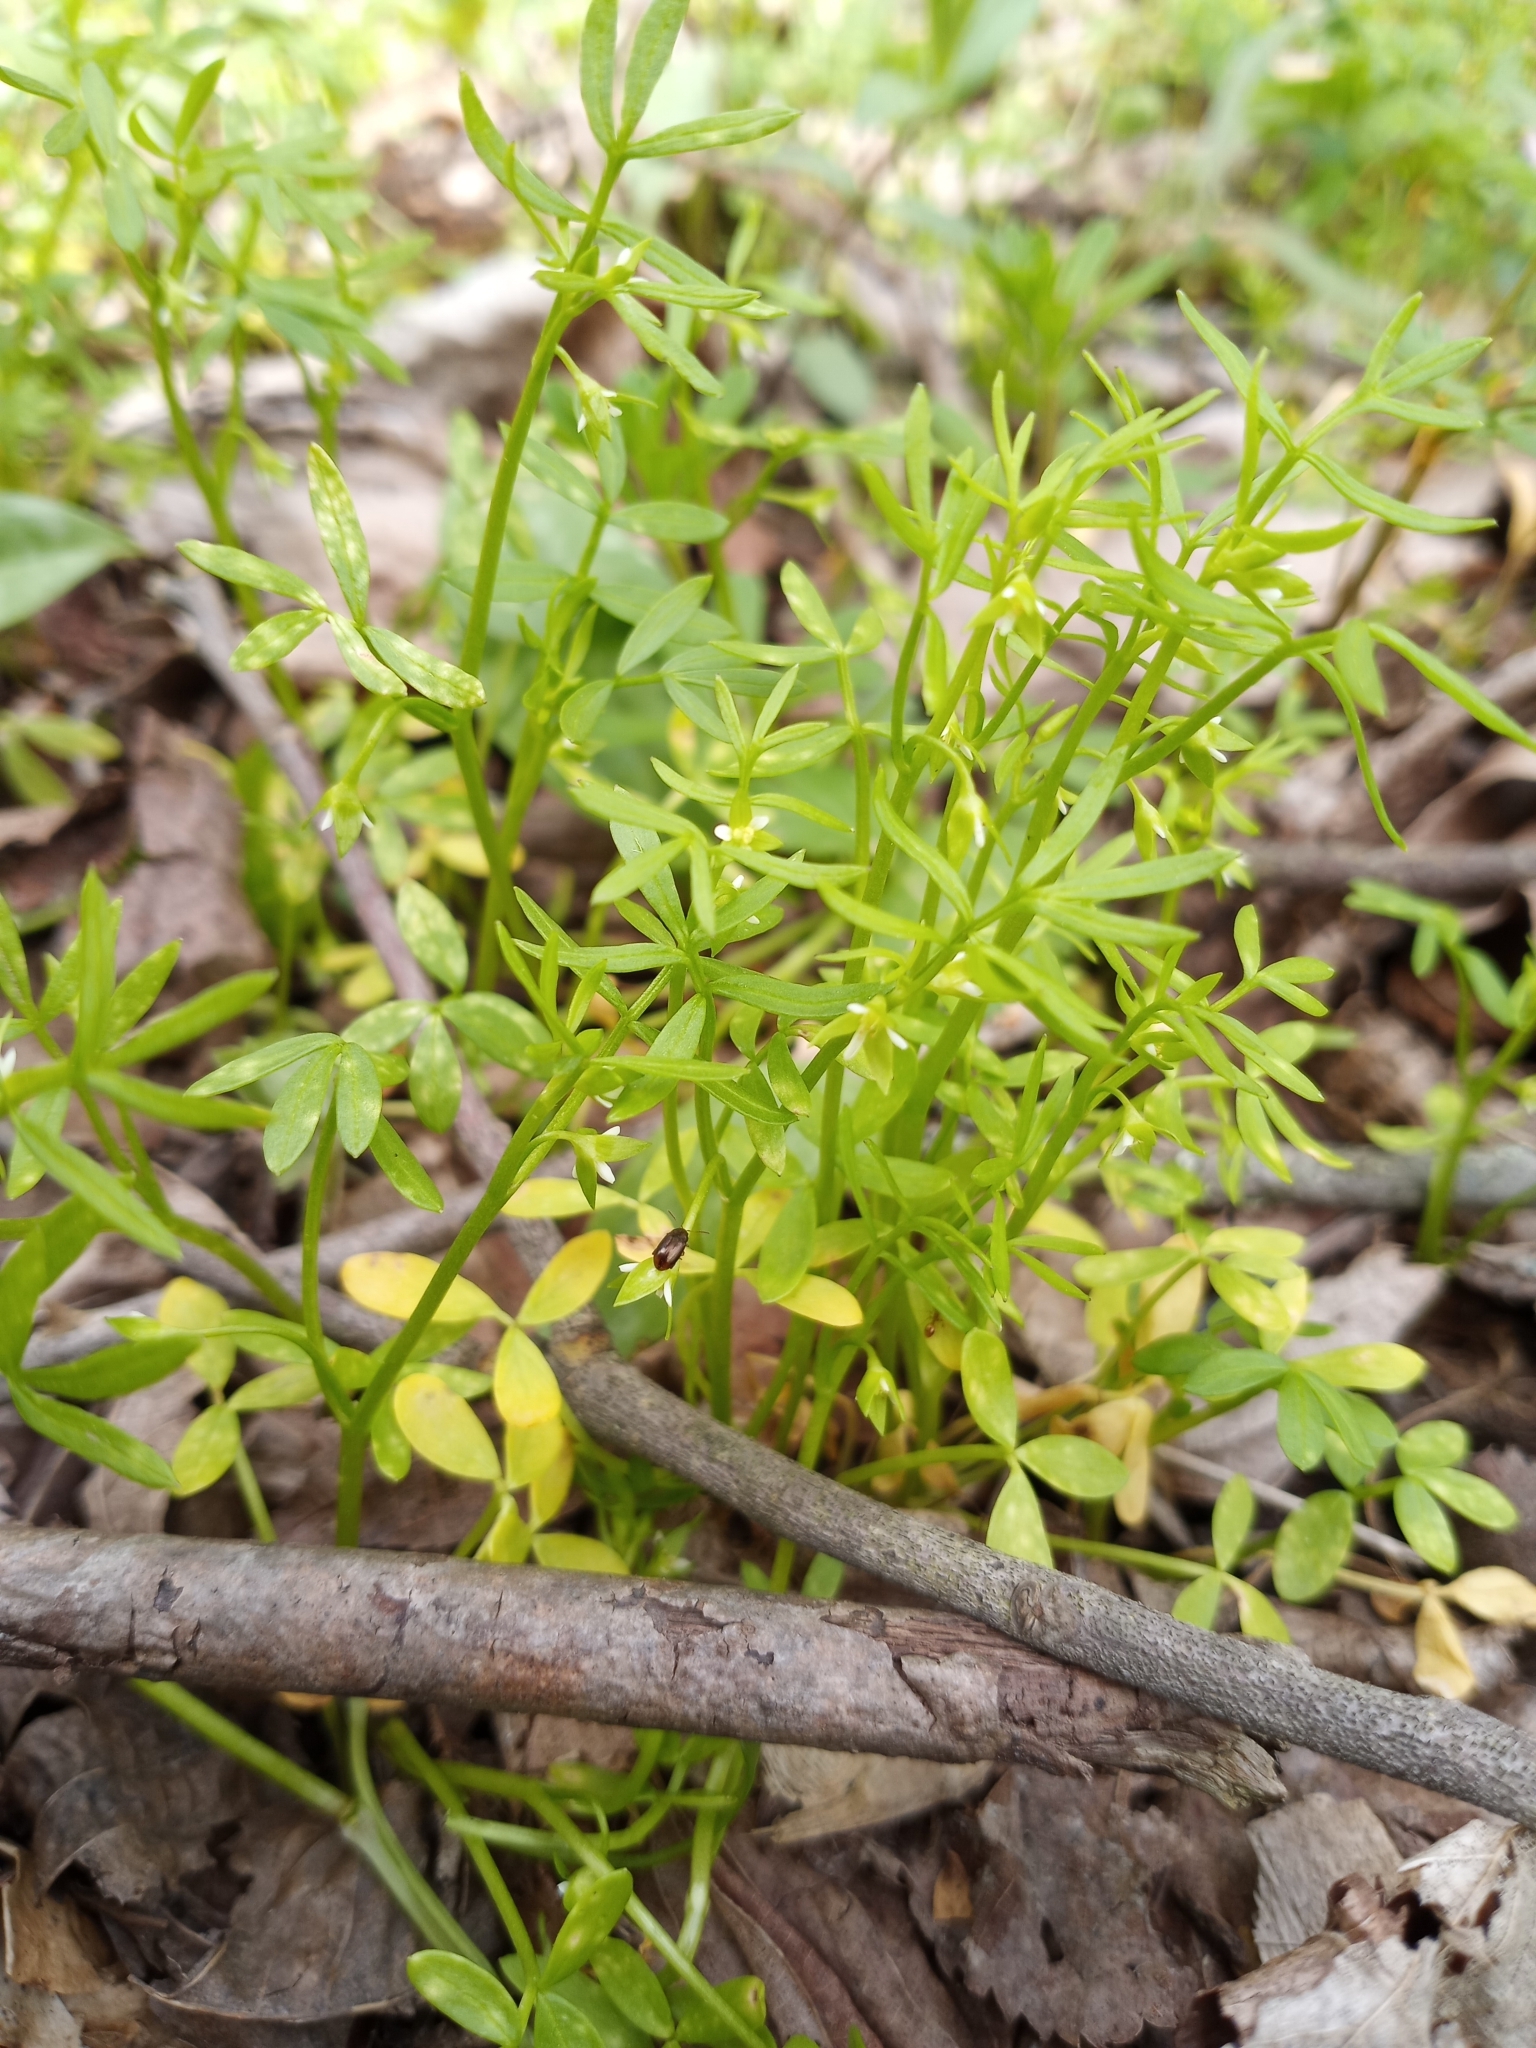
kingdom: Plantae
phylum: Tracheophyta
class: Magnoliopsida
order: Brassicales
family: Limnanthaceae
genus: Floerkea
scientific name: Floerkea proserpinacoides
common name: False mermaid
